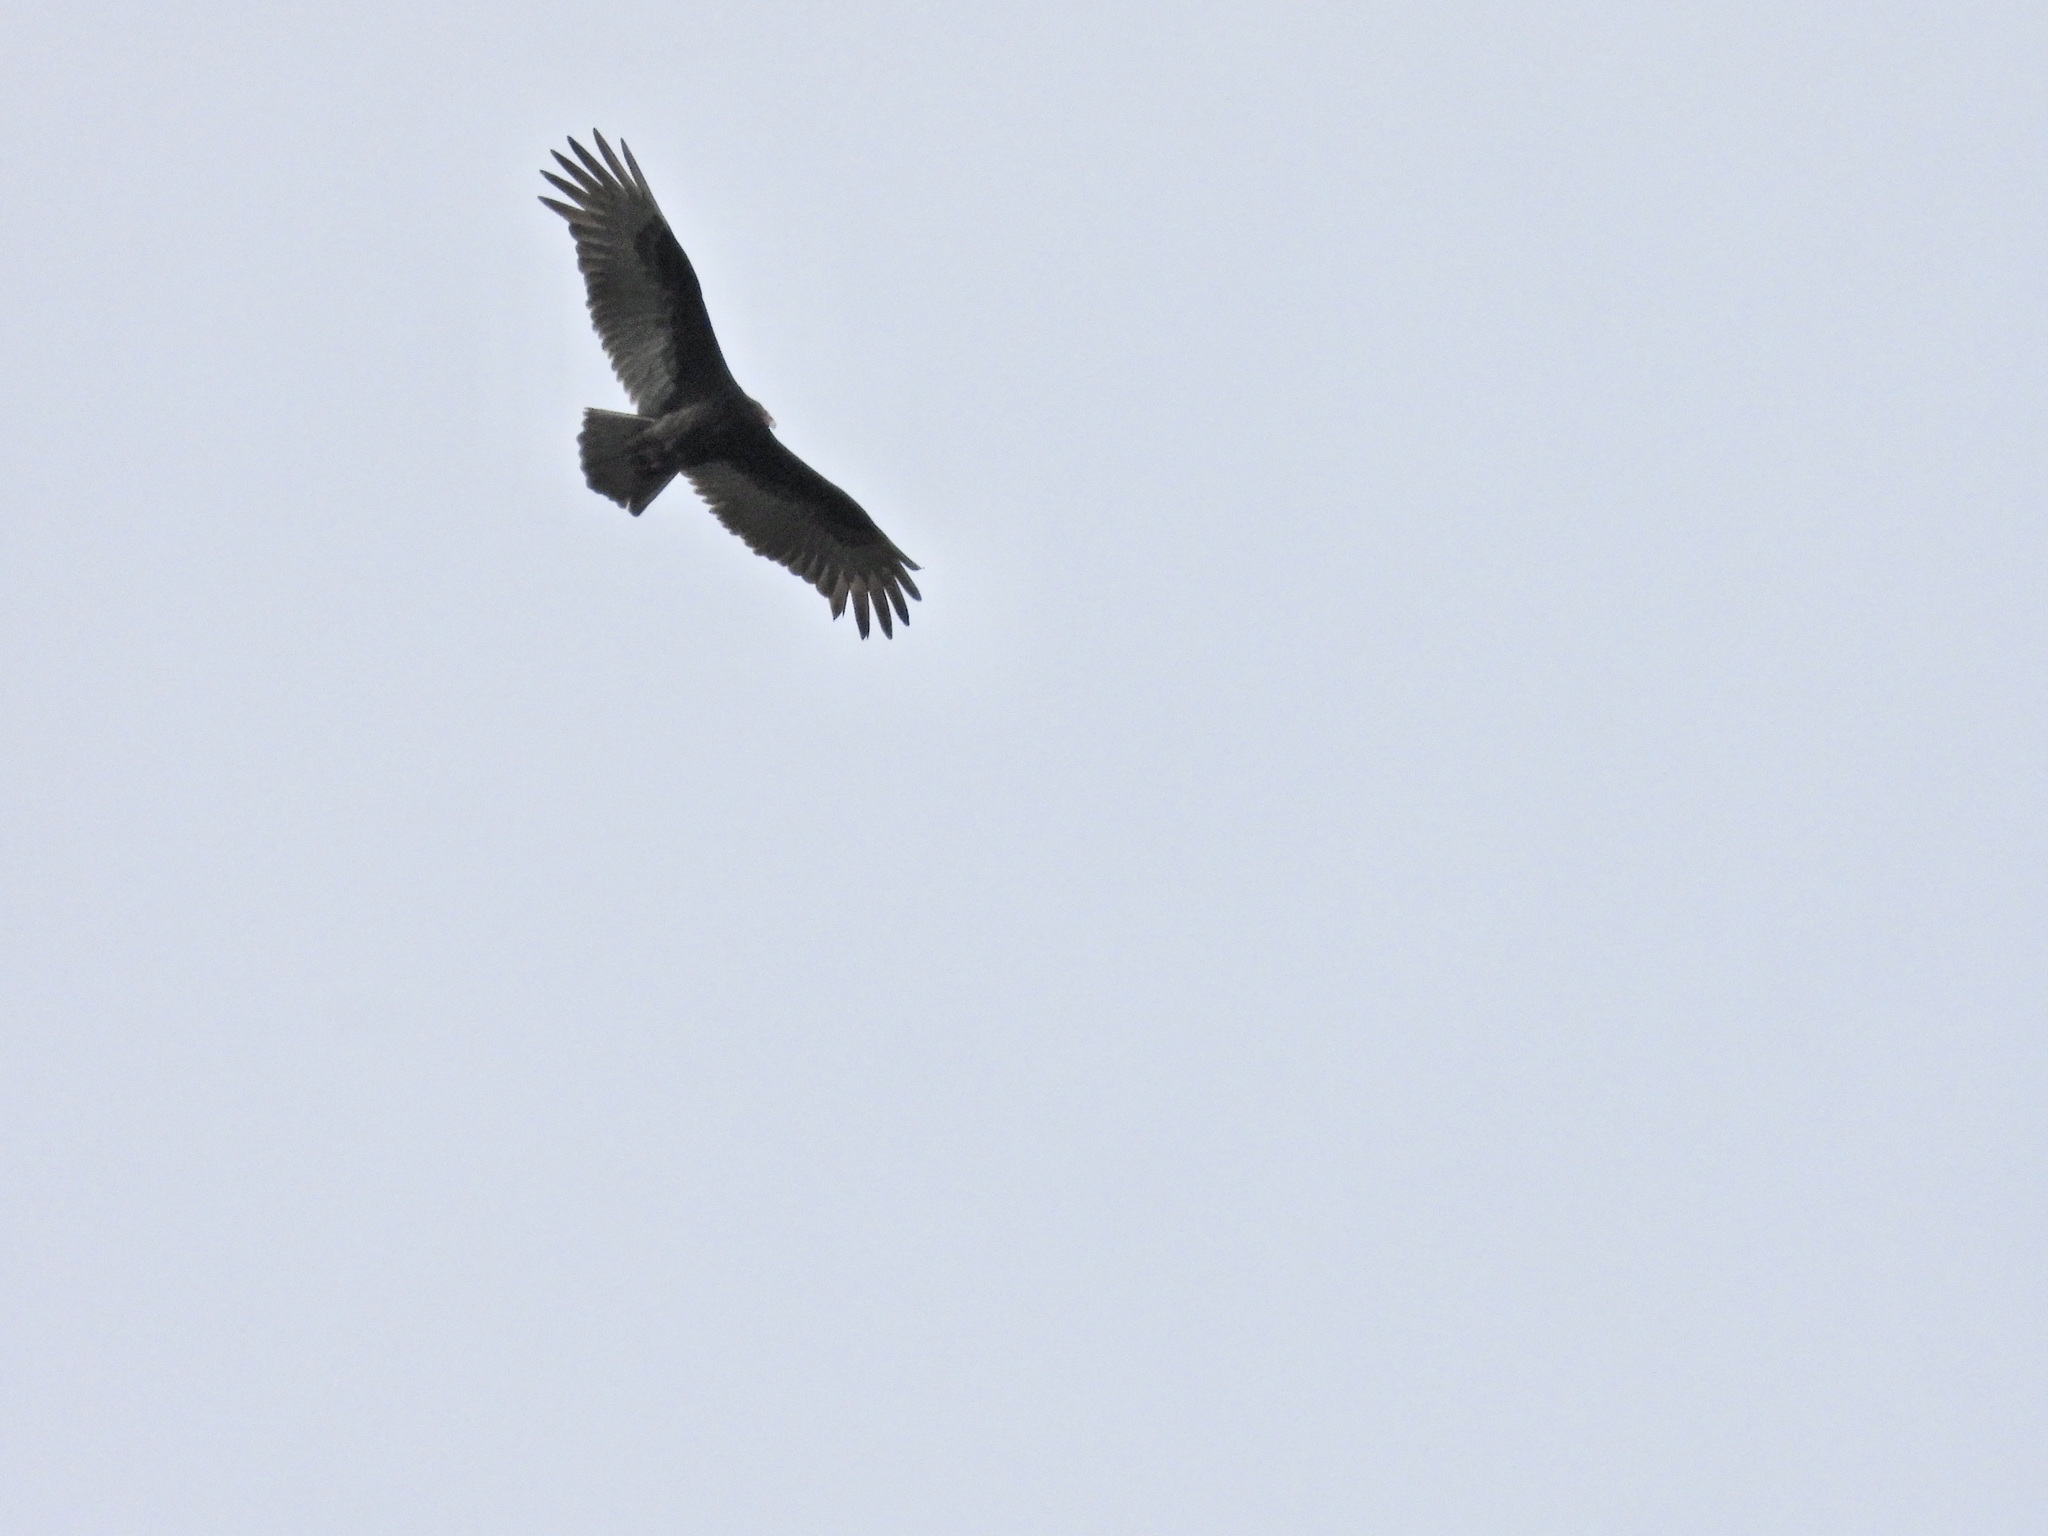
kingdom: Animalia
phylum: Chordata
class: Aves
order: Accipitriformes
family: Cathartidae
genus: Cathartes
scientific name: Cathartes aura
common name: Turkey vulture
